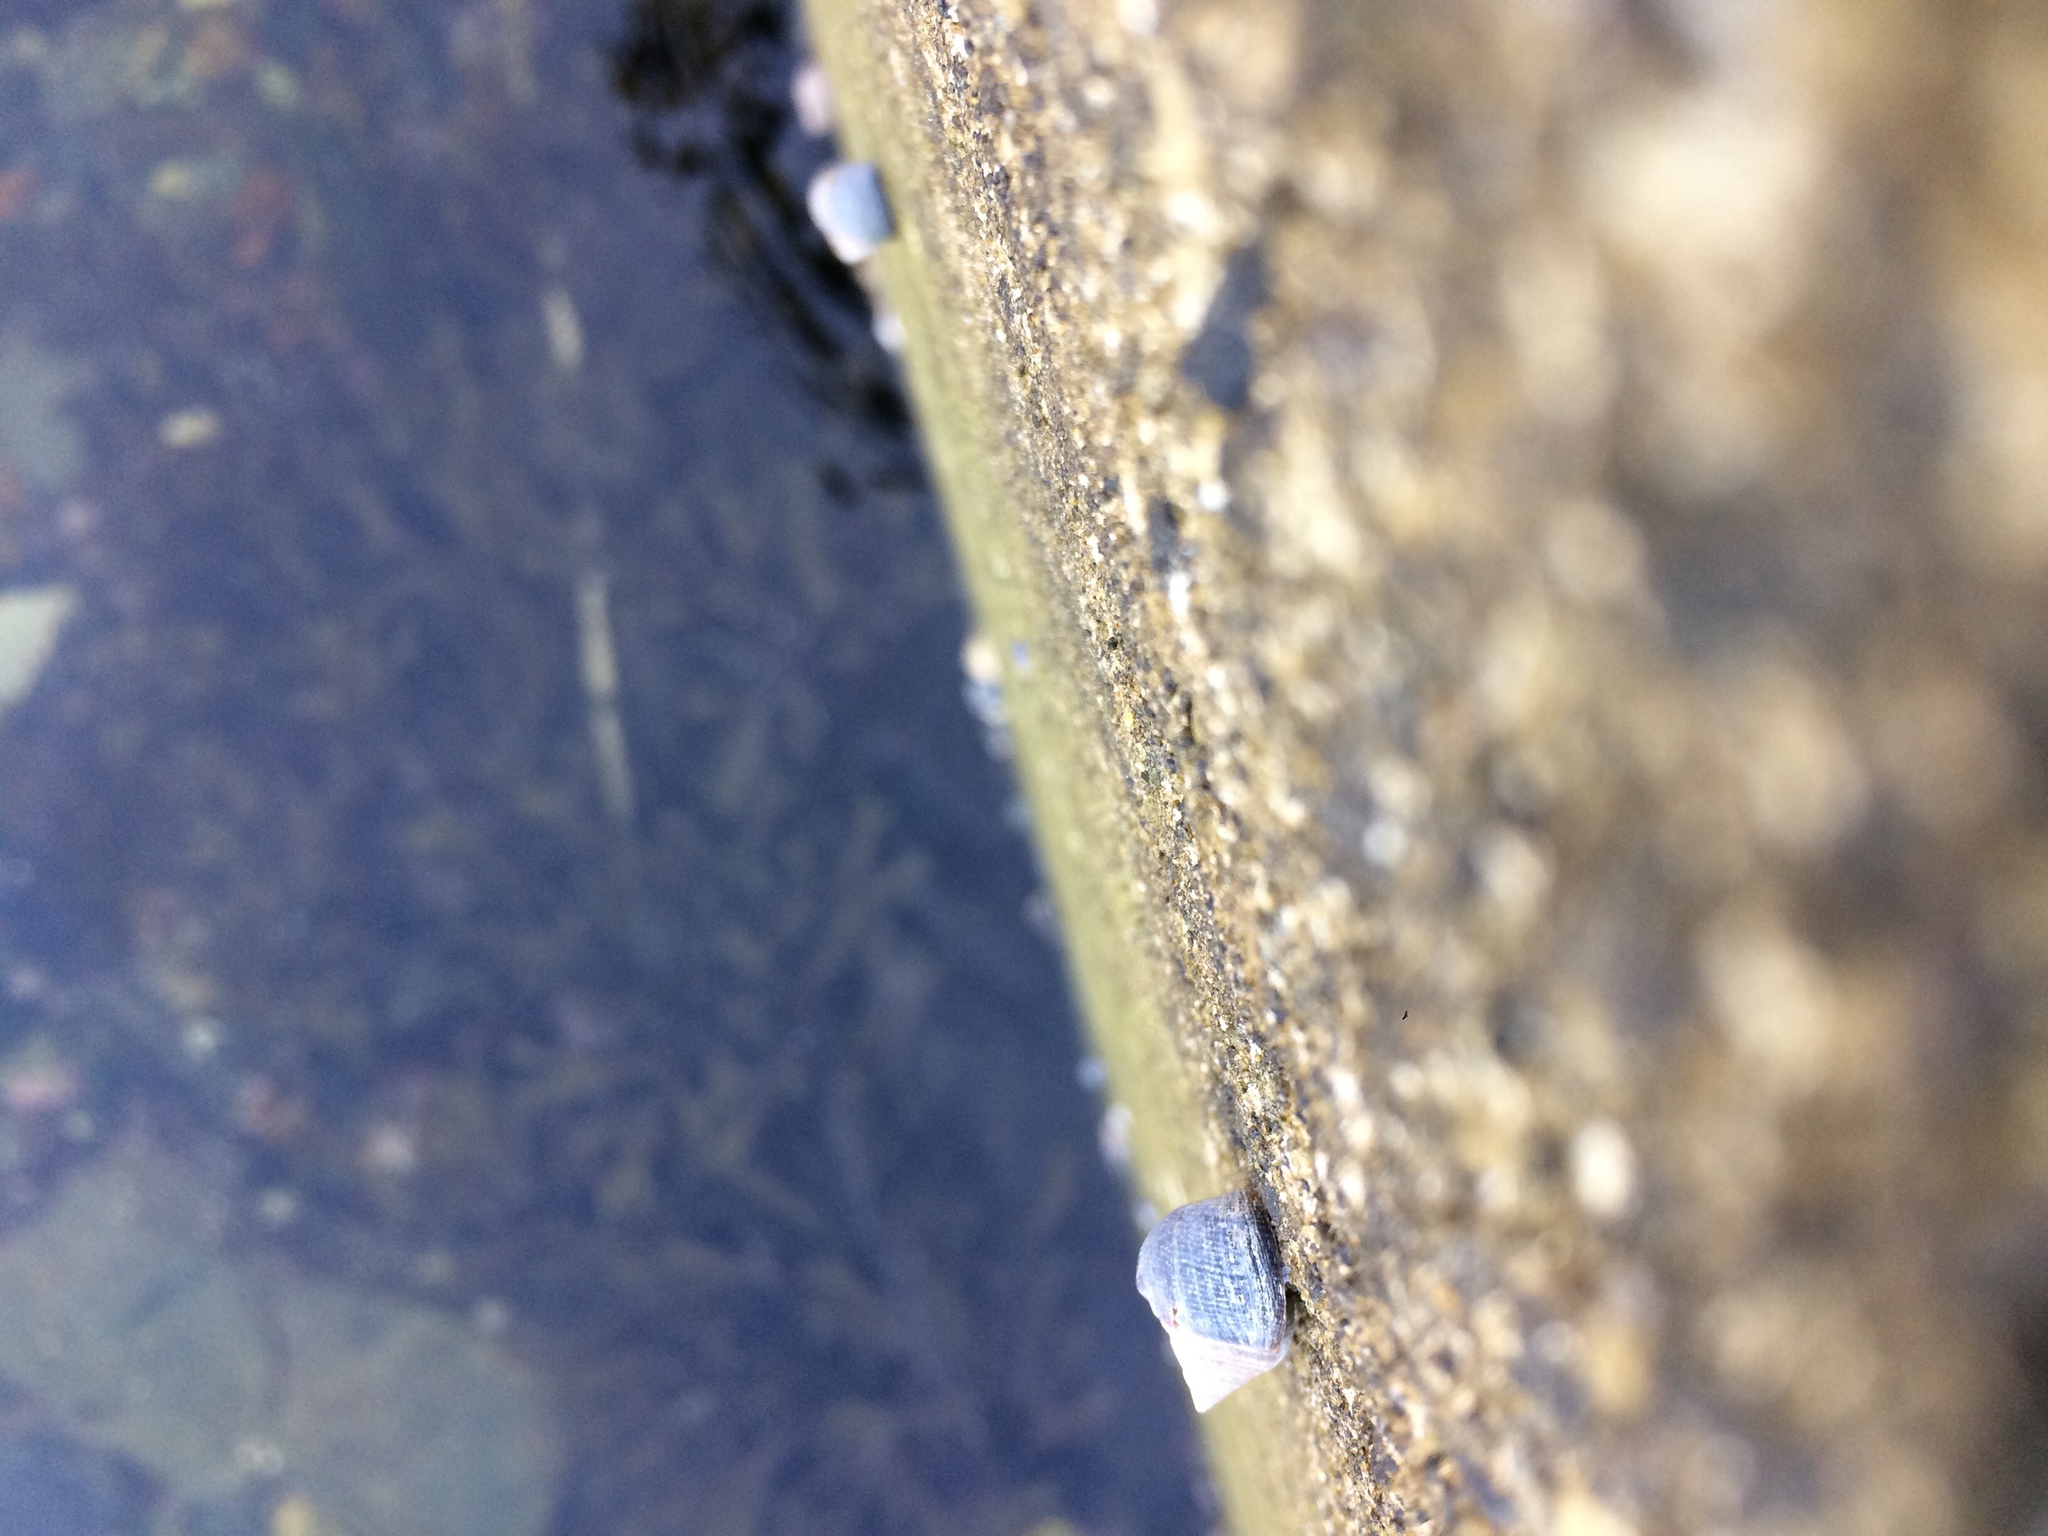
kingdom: Animalia
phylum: Mollusca
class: Gastropoda
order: Littorinimorpha
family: Littorinidae
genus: Littorina
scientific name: Littorina littorea
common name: Common periwinkle
